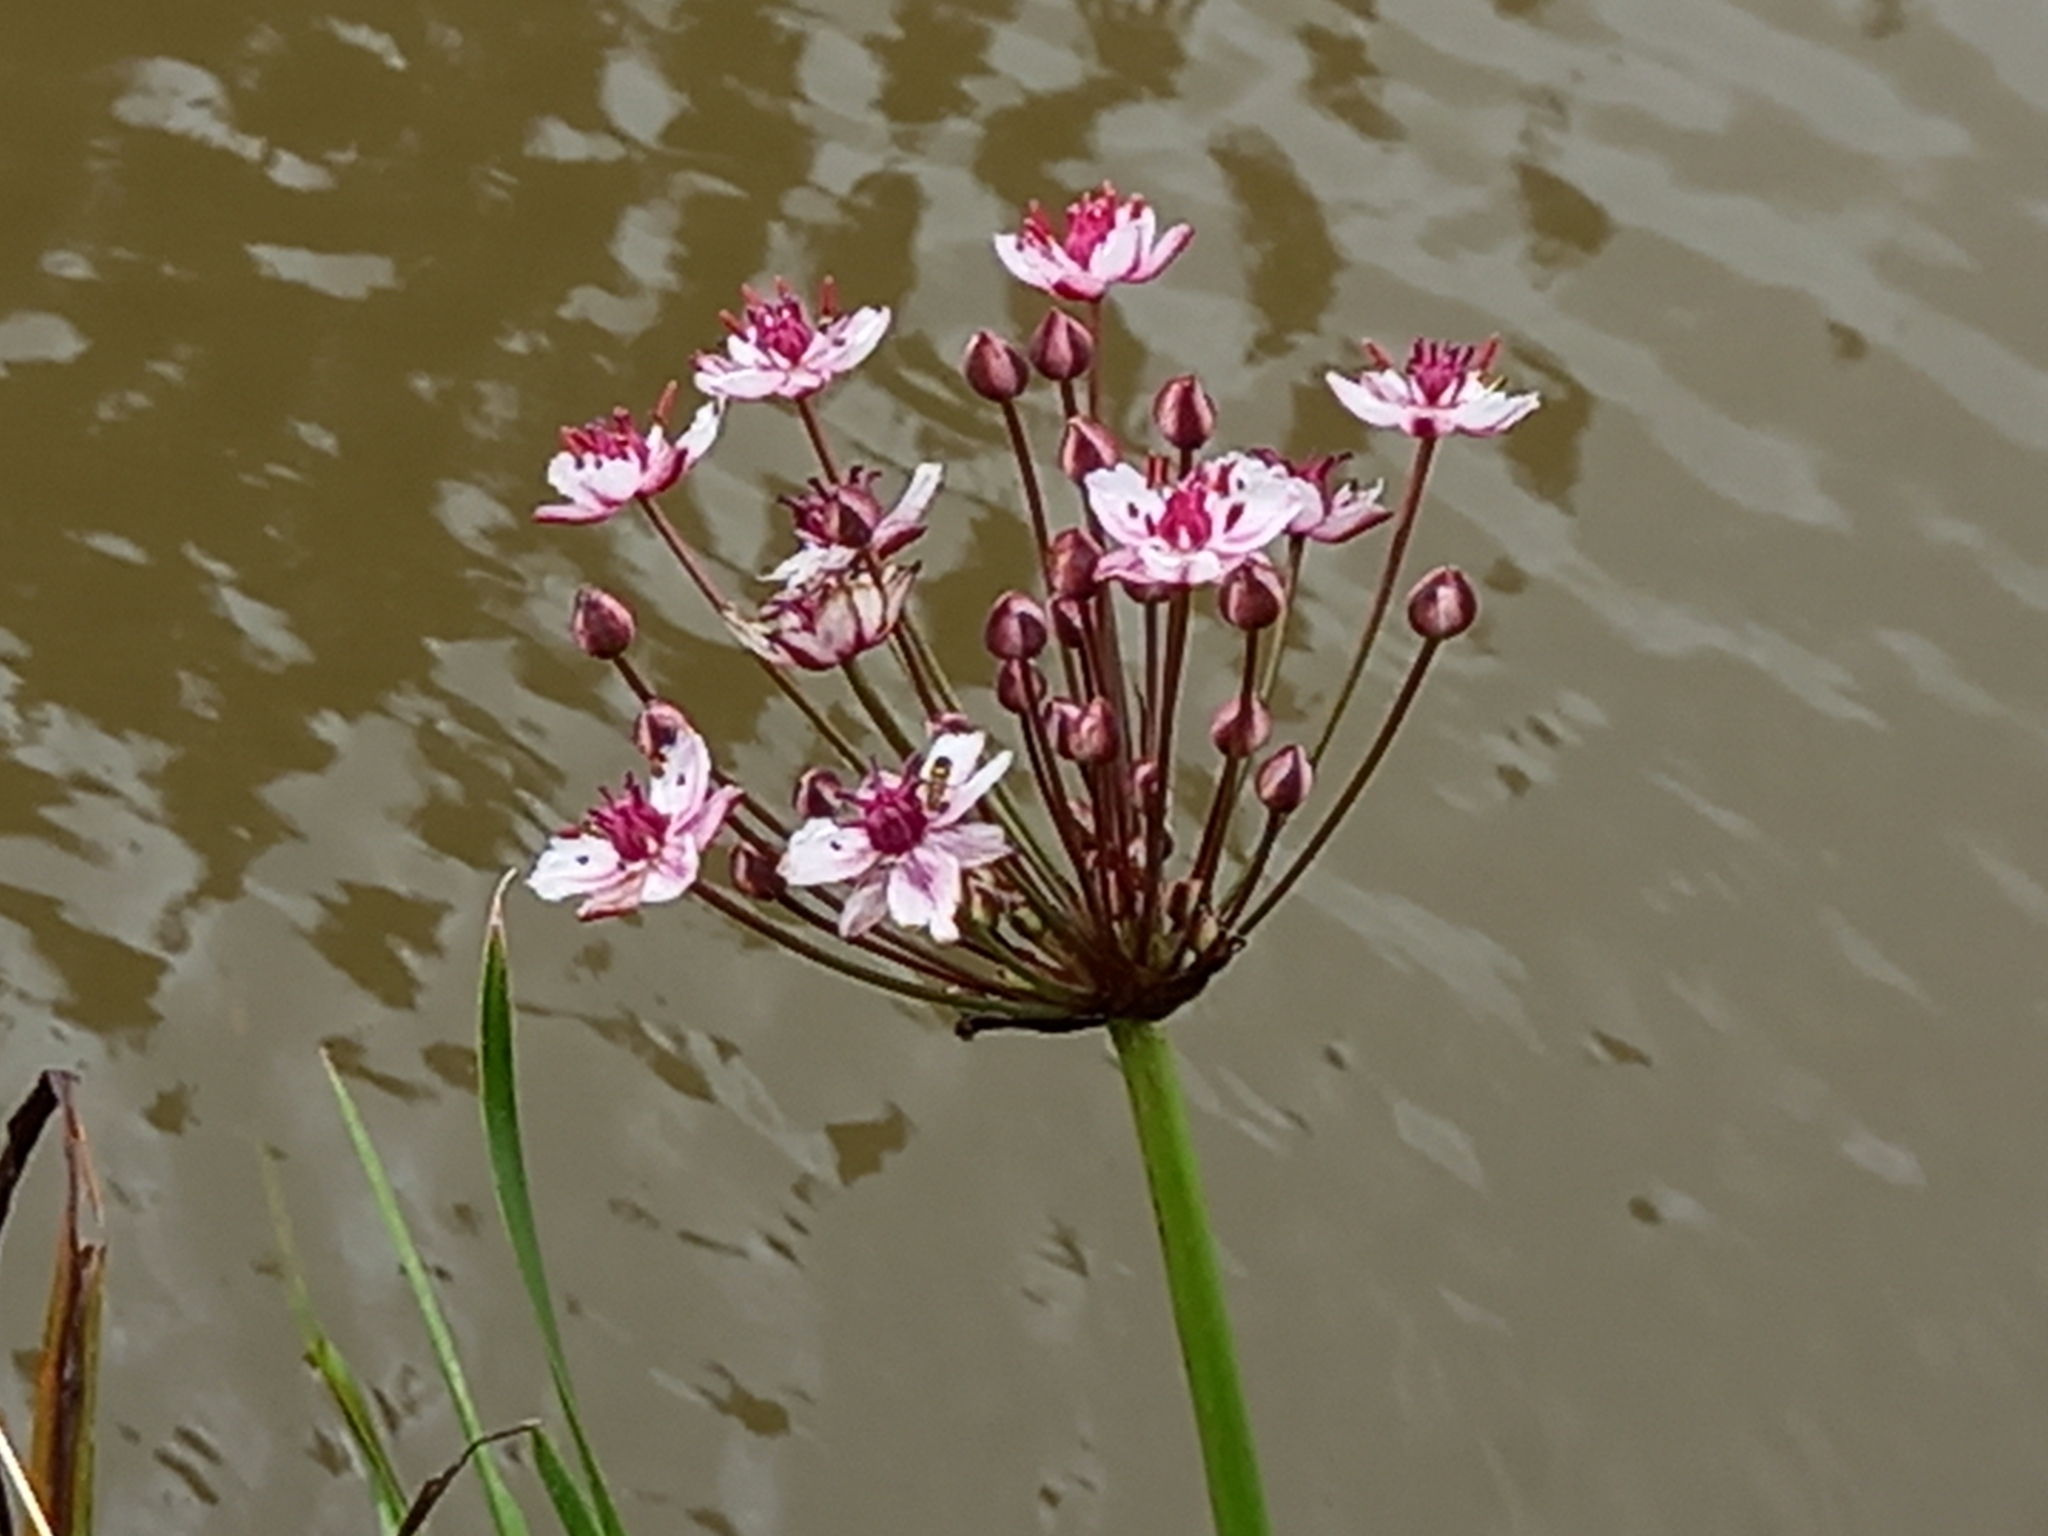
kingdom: Plantae
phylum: Tracheophyta
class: Liliopsida
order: Alismatales
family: Butomaceae
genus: Butomus
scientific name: Butomus umbellatus
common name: Flowering-rush
